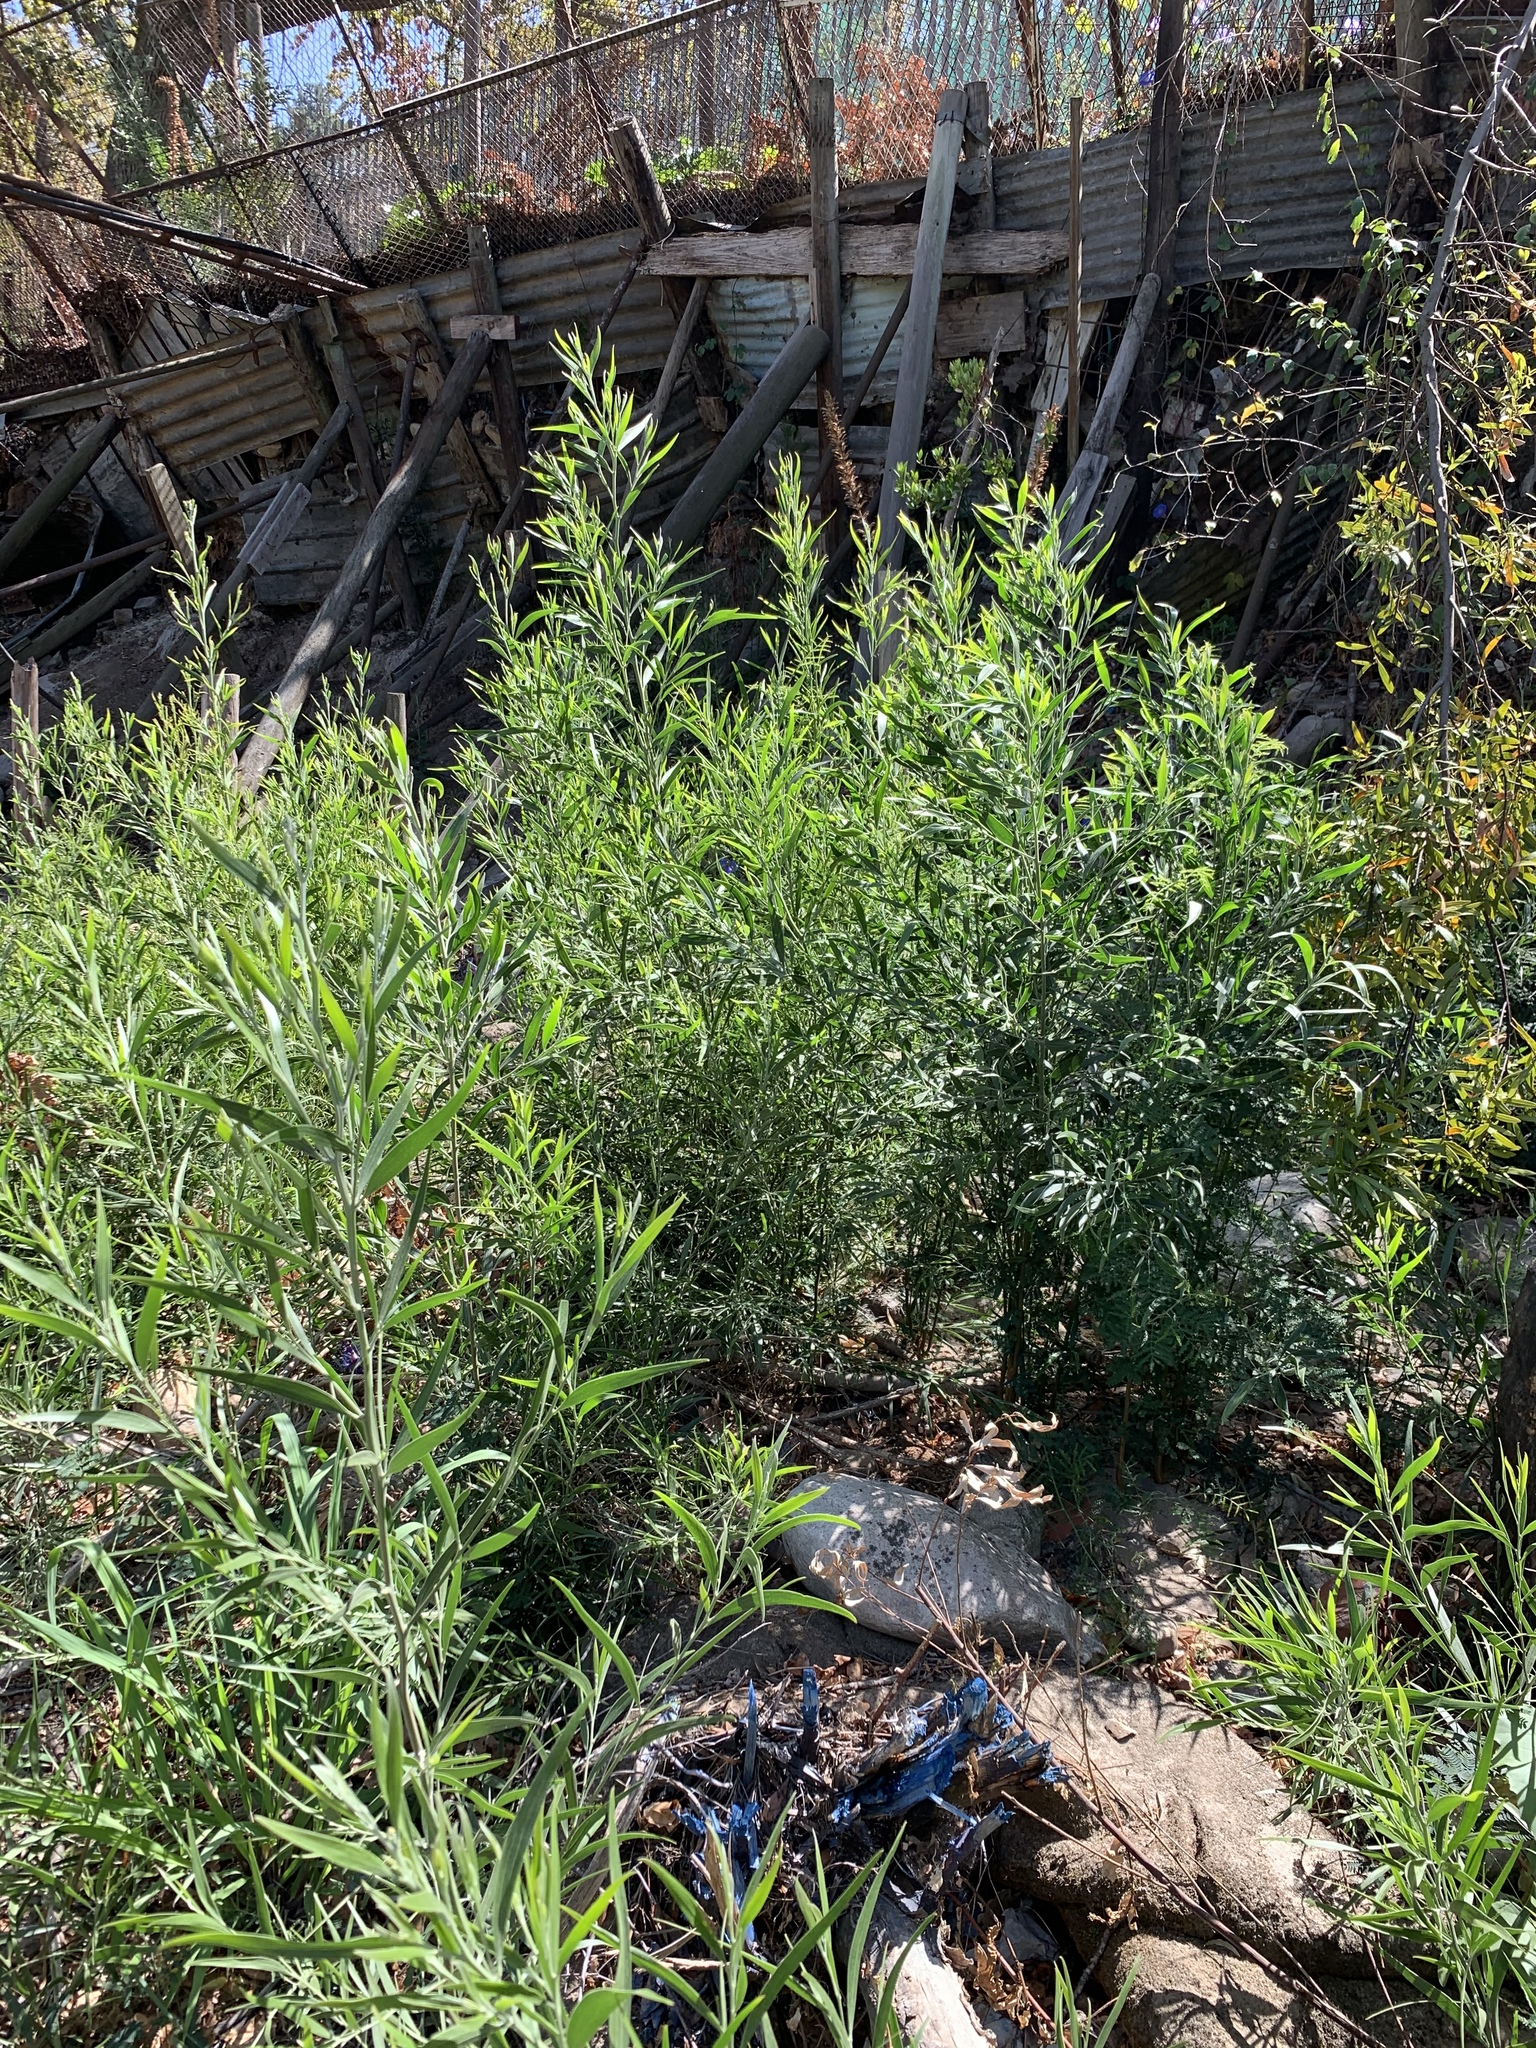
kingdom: Plantae
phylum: Tracheophyta
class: Magnoliopsida
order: Fabales
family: Fabaceae
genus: Acacia
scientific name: Acacia melanoxylon
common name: Blackwood
